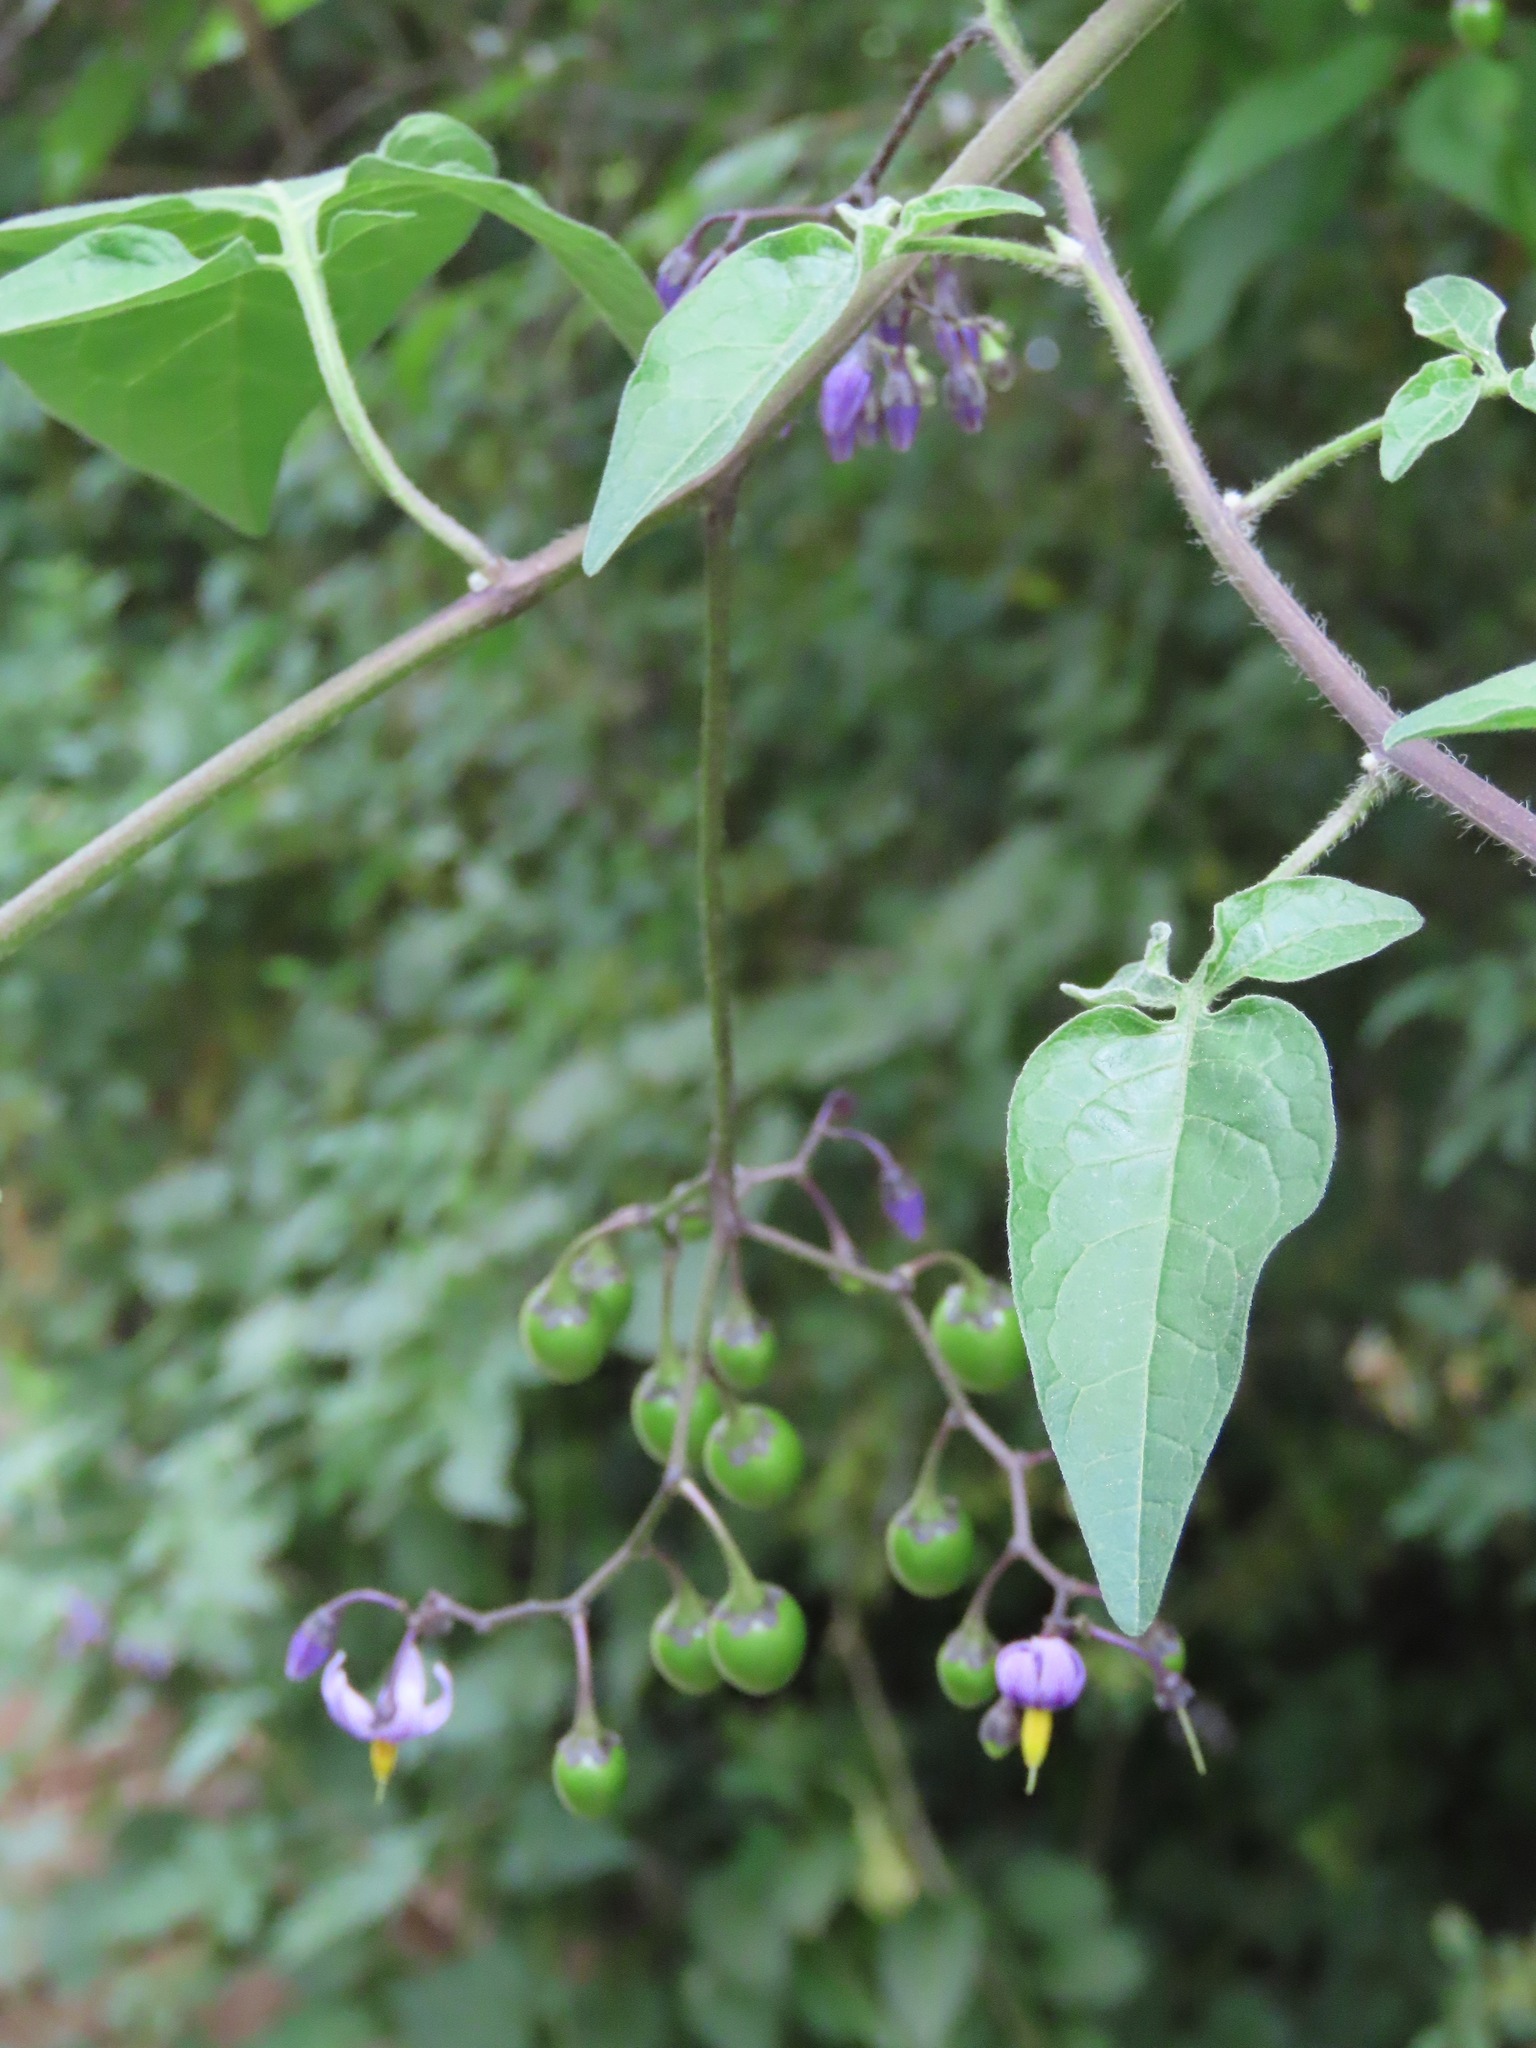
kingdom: Plantae
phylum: Tracheophyta
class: Magnoliopsida
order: Solanales
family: Solanaceae
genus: Solanum
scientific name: Solanum dulcamara
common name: Climbing nightshade
